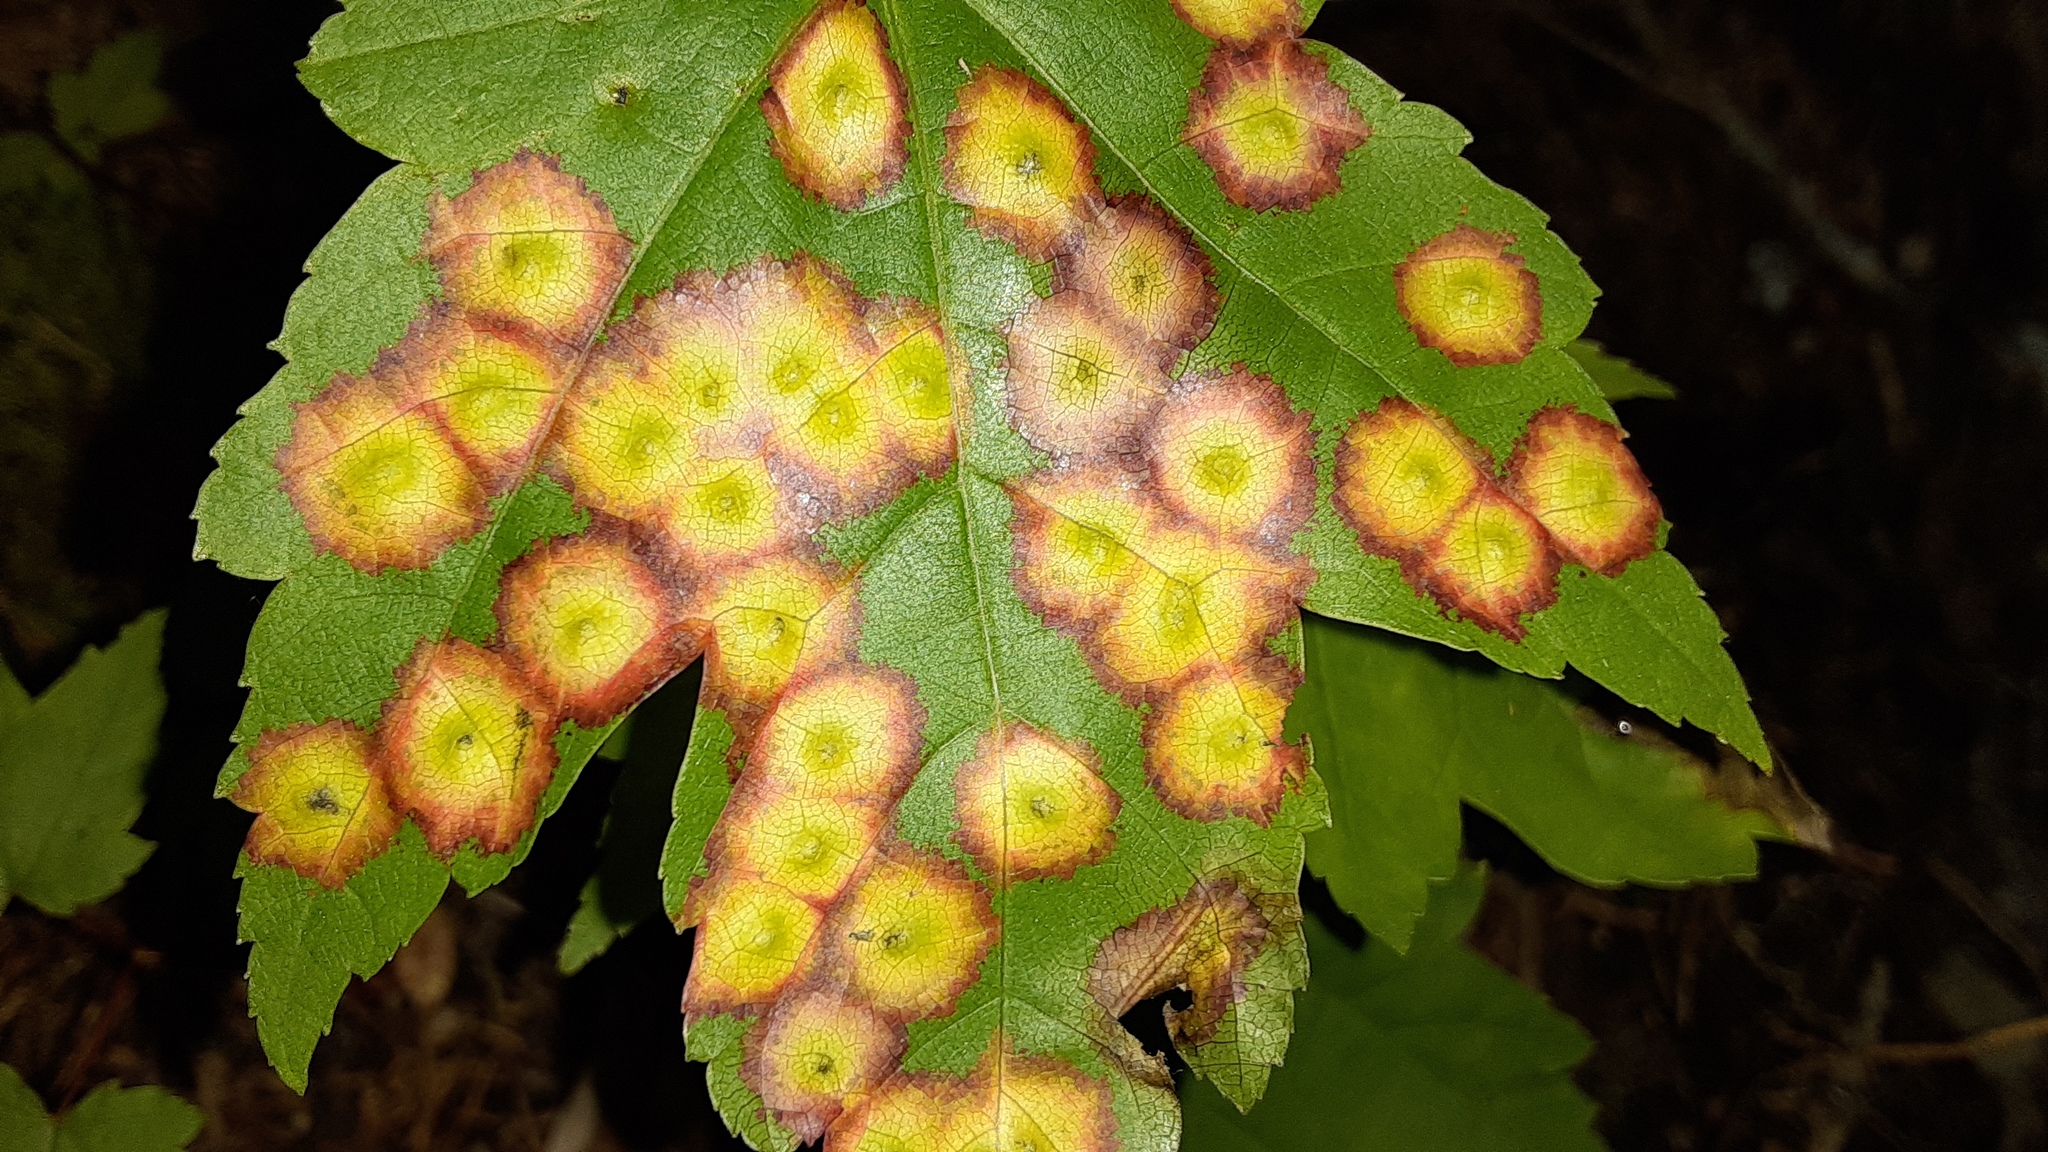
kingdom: Animalia
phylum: Arthropoda
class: Insecta
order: Diptera
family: Cecidomyiidae
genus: Acericecis
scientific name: Acericecis ocellaris
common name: Ocellate gall midge
